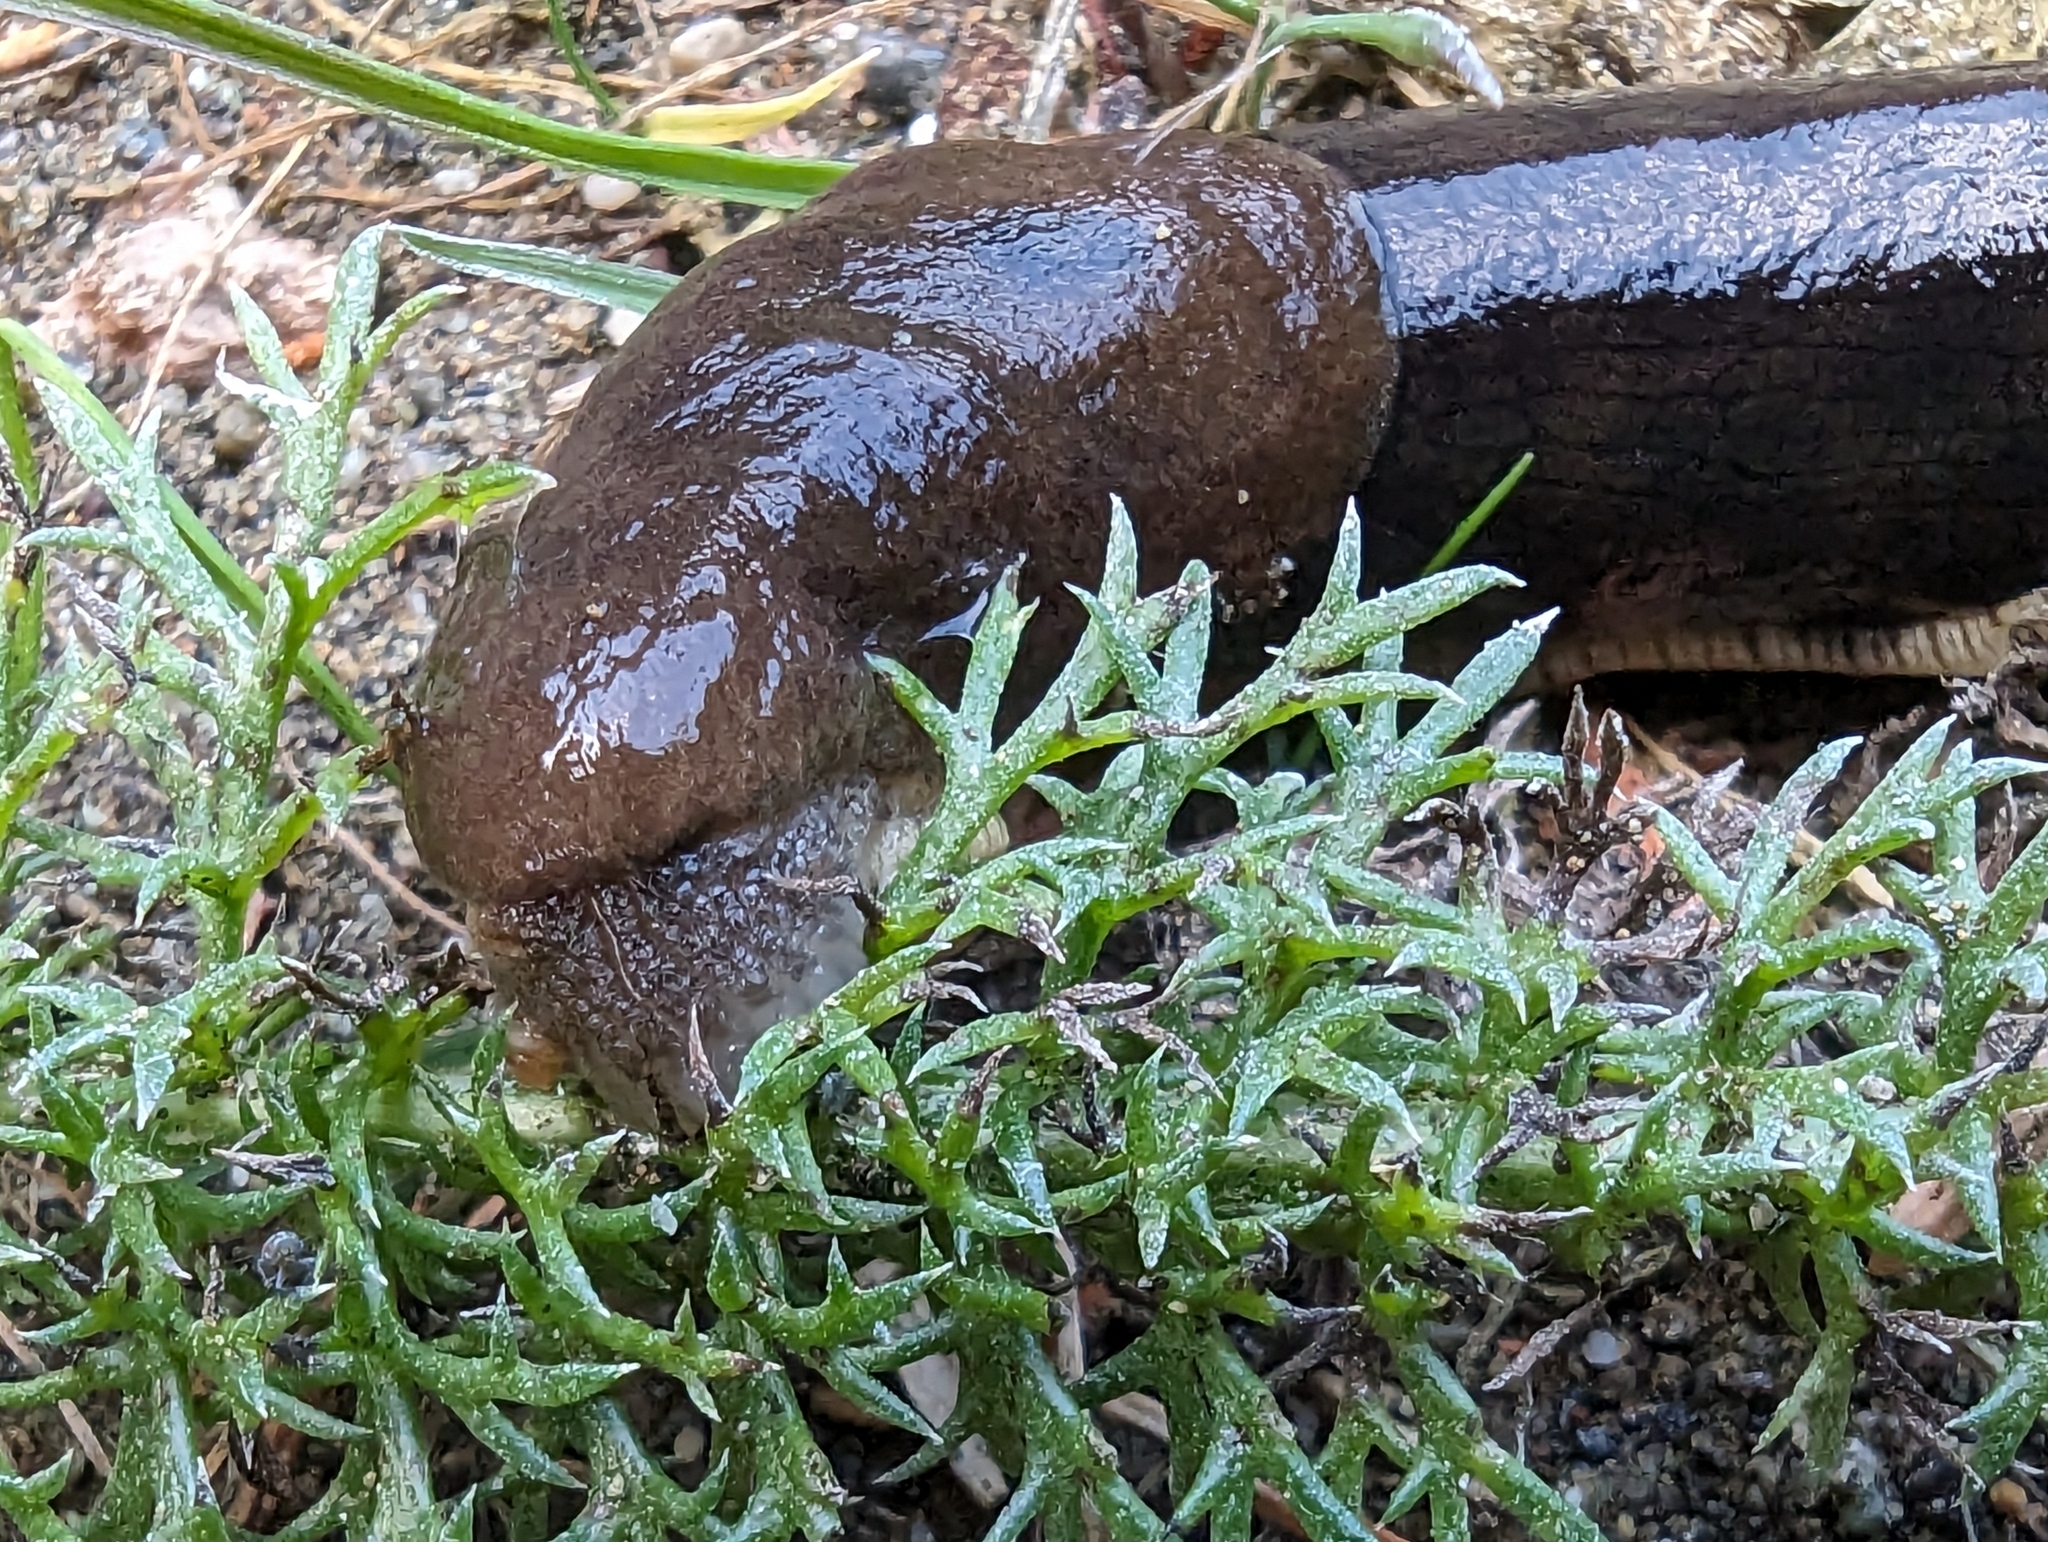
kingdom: Animalia
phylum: Mollusca
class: Gastropoda
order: Stylommatophora
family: Ariolimacidae
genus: Ariolimax
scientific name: Ariolimax columbianus
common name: Pacific banana slug
